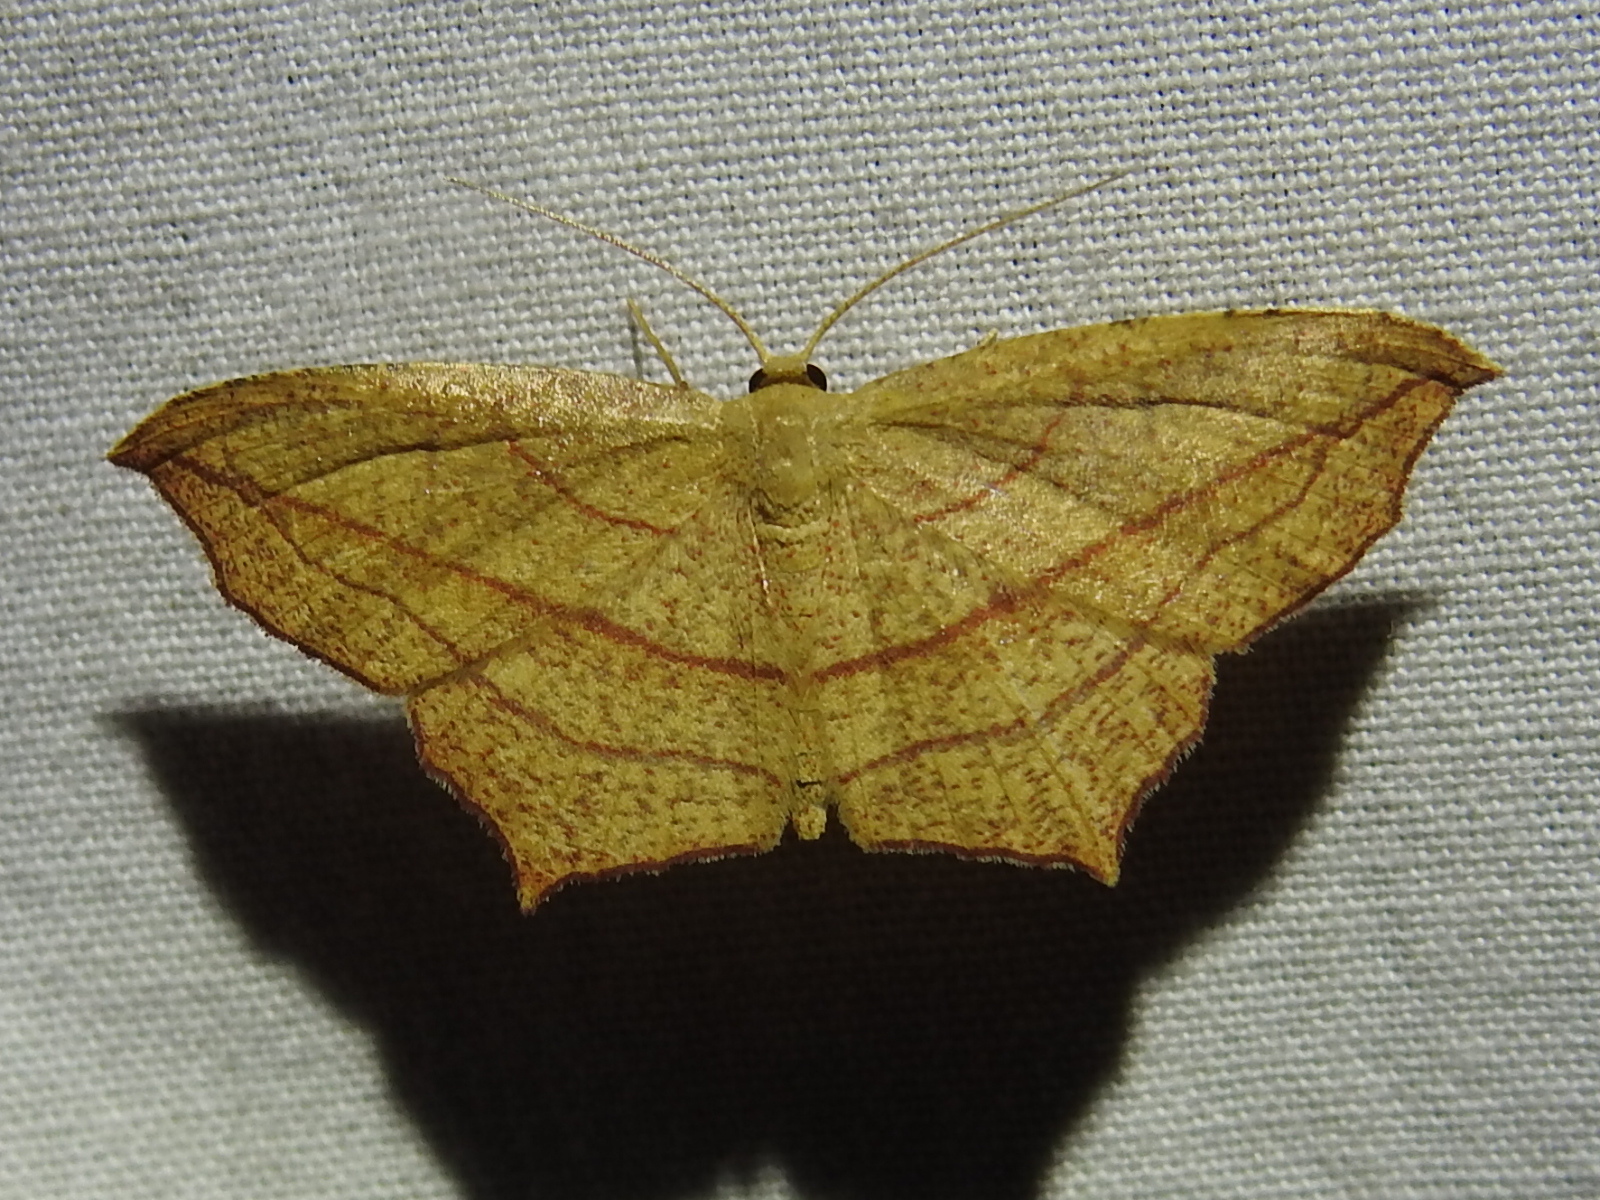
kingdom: Animalia
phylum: Arthropoda
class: Insecta
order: Lepidoptera
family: Geometridae
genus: Timandra
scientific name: Timandra amaturaria
